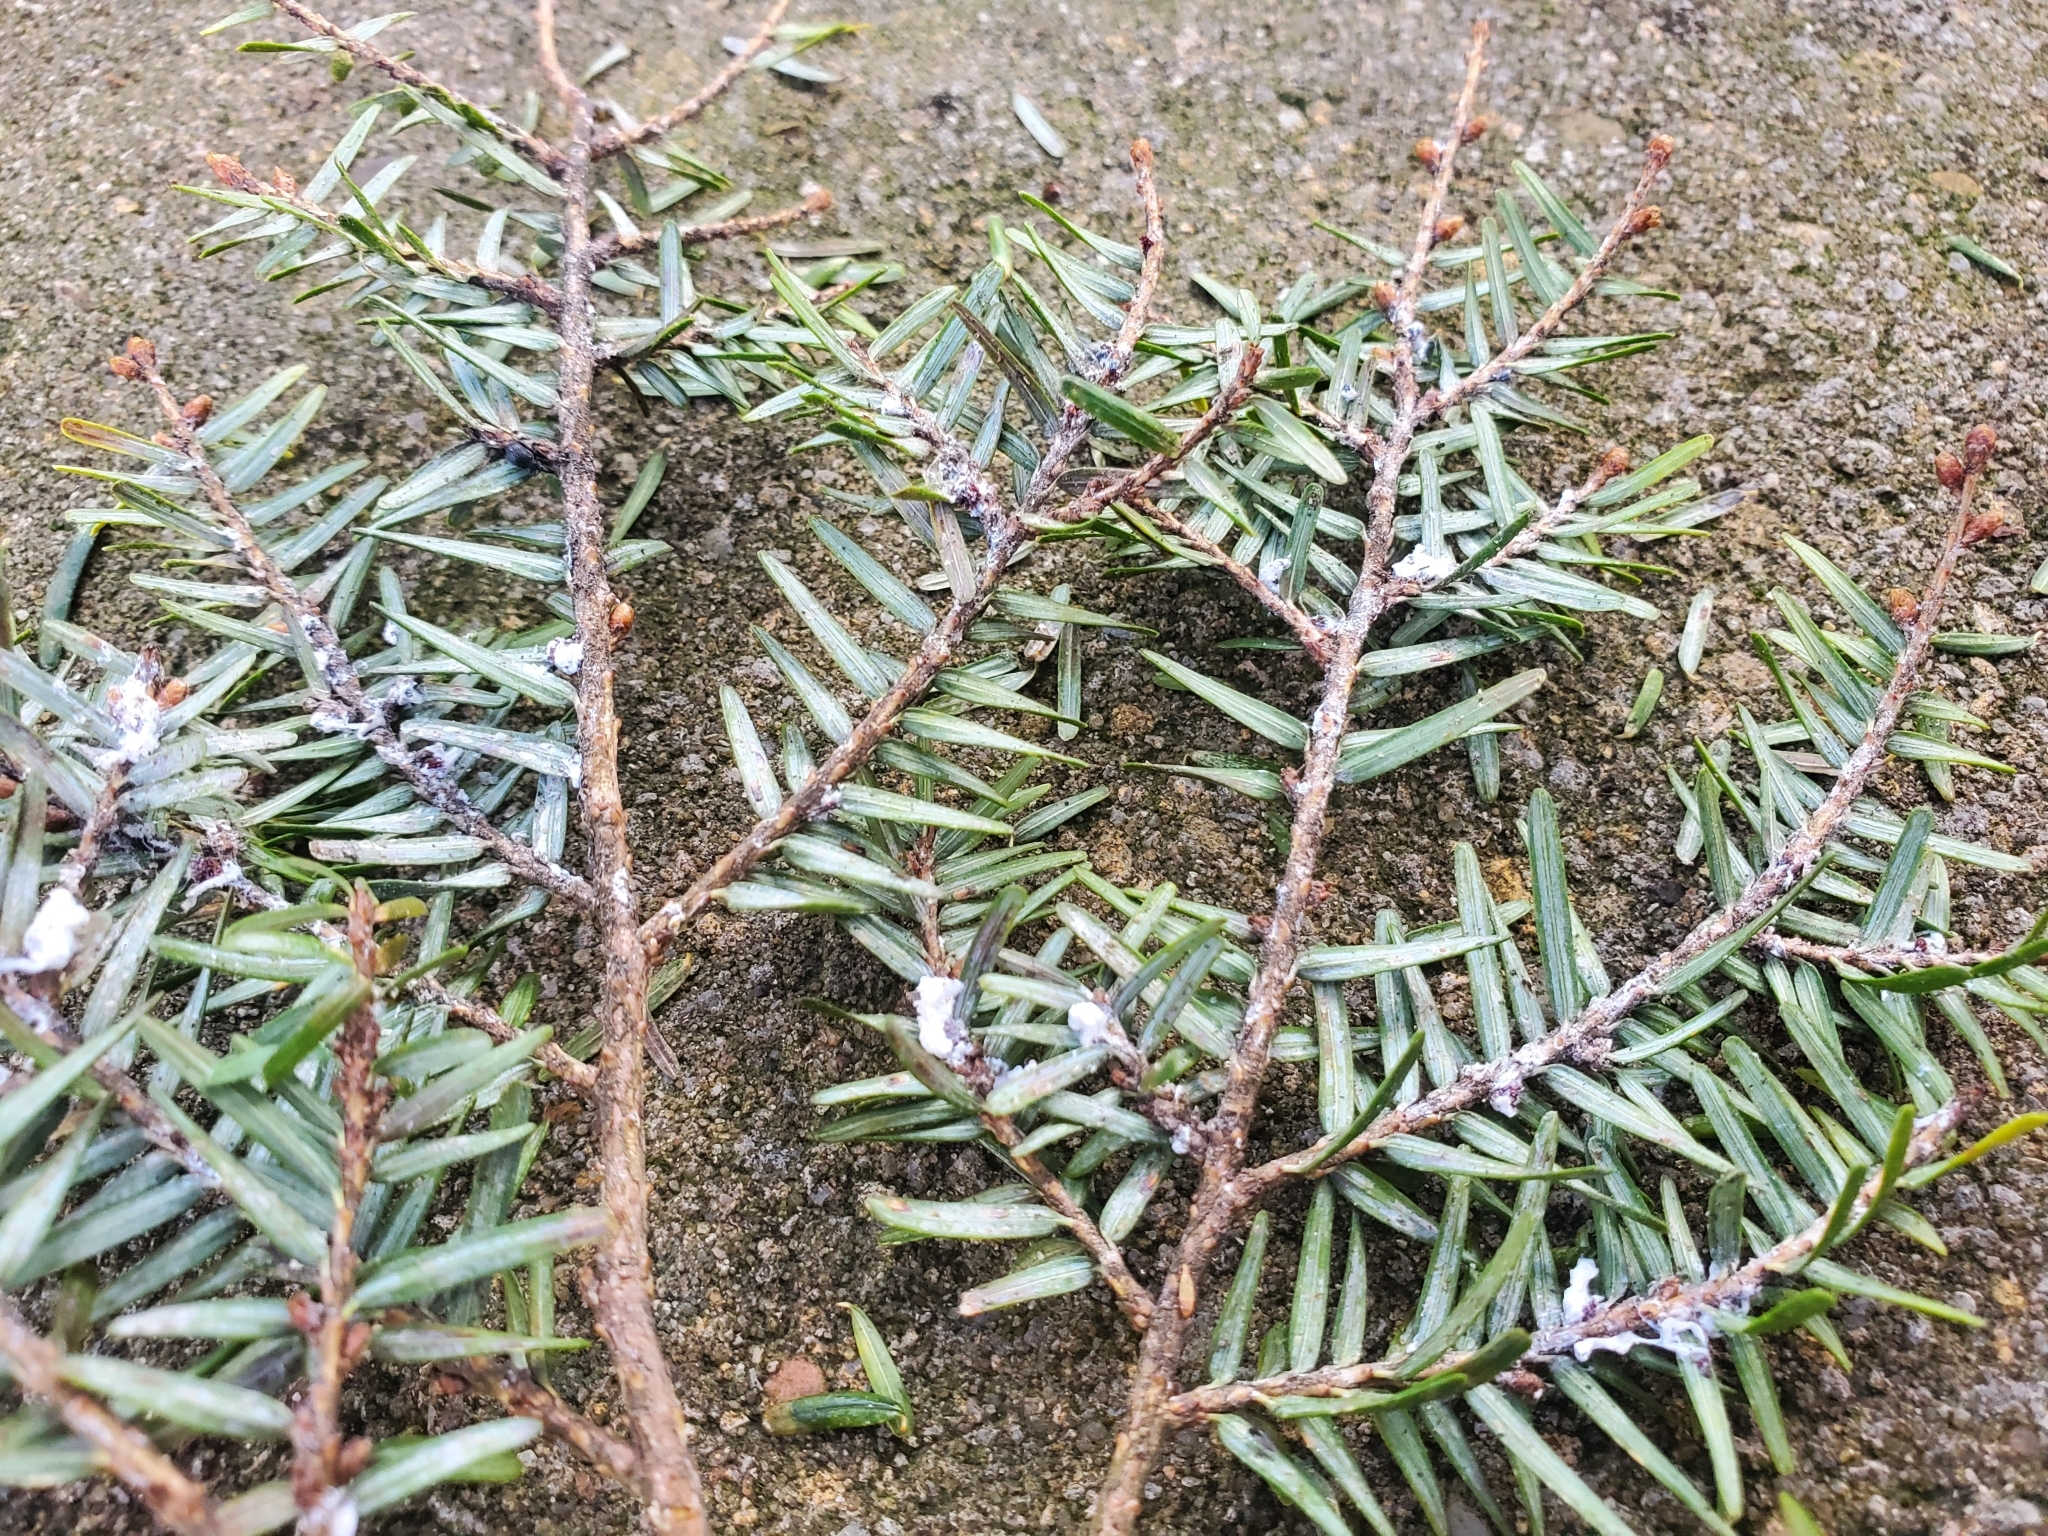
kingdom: Animalia
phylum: Arthropoda
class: Insecta
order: Hemiptera
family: Adelgidae
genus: Adelges
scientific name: Adelges tsugae
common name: Hemlock woolly adelgid
